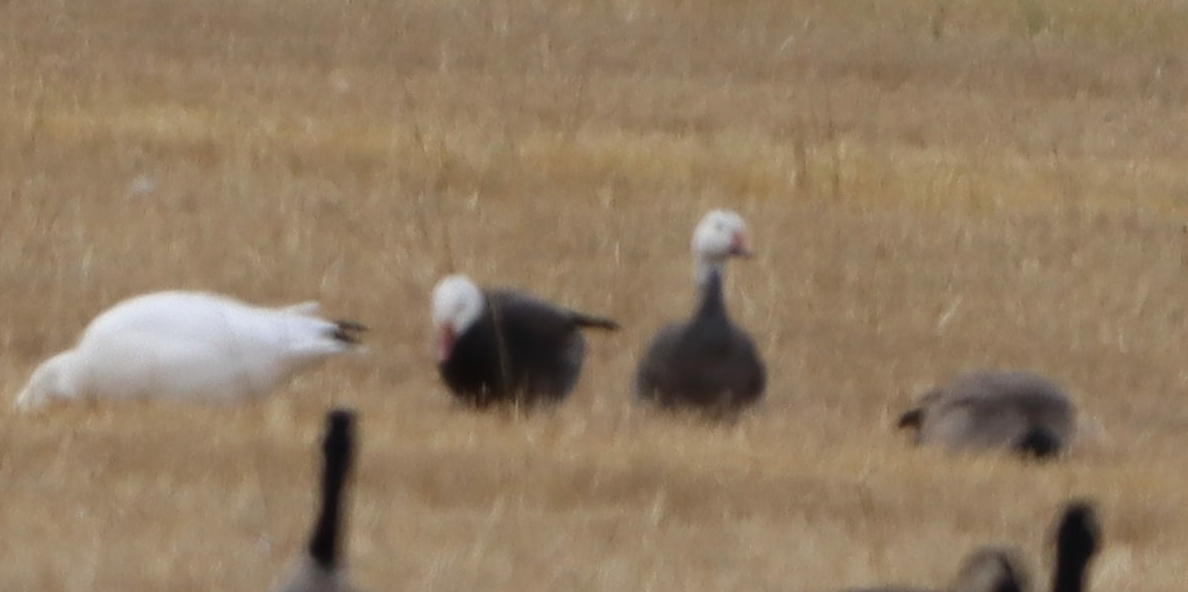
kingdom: Animalia
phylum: Chordata
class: Aves
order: Anseriformes
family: Anatidae
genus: Anser
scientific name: Anser caerulescens
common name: Snow goose
